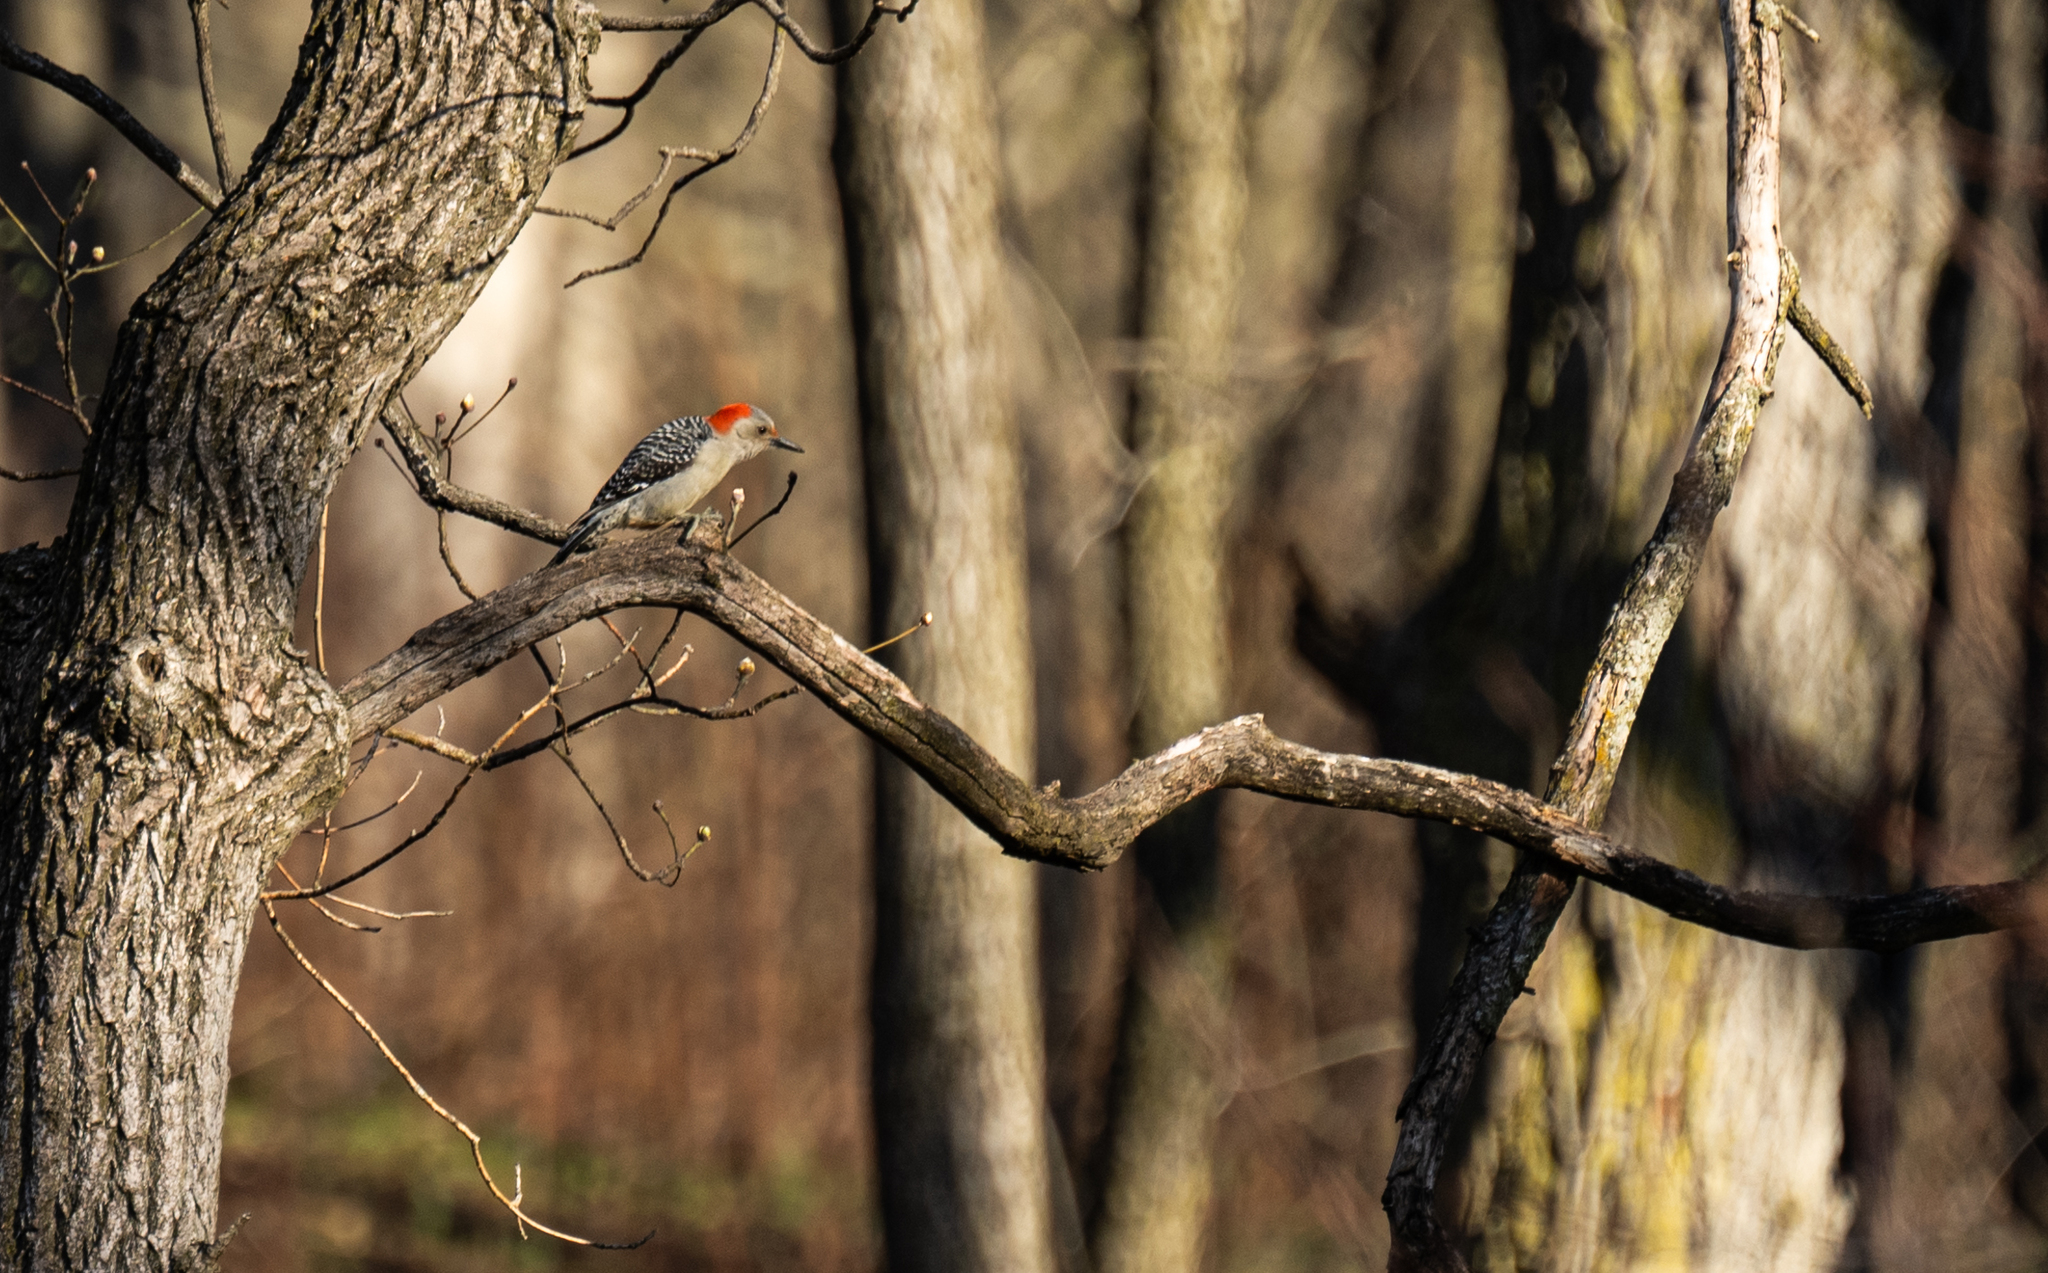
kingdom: Animalia
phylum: Chordata
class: Aves
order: Piciformes
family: Picidae
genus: Melanerpes
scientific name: Melanerpes carolinus
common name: Red-bellied woodpecker
